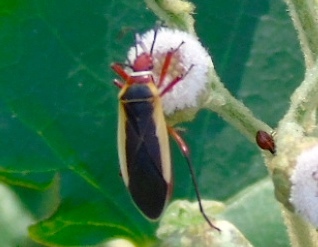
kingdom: Animalia
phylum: Arthropoda
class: Insecta
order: Hemiptera
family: Pyrrhocoridae
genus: Dysdercus
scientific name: Dysdercus obscuratus
